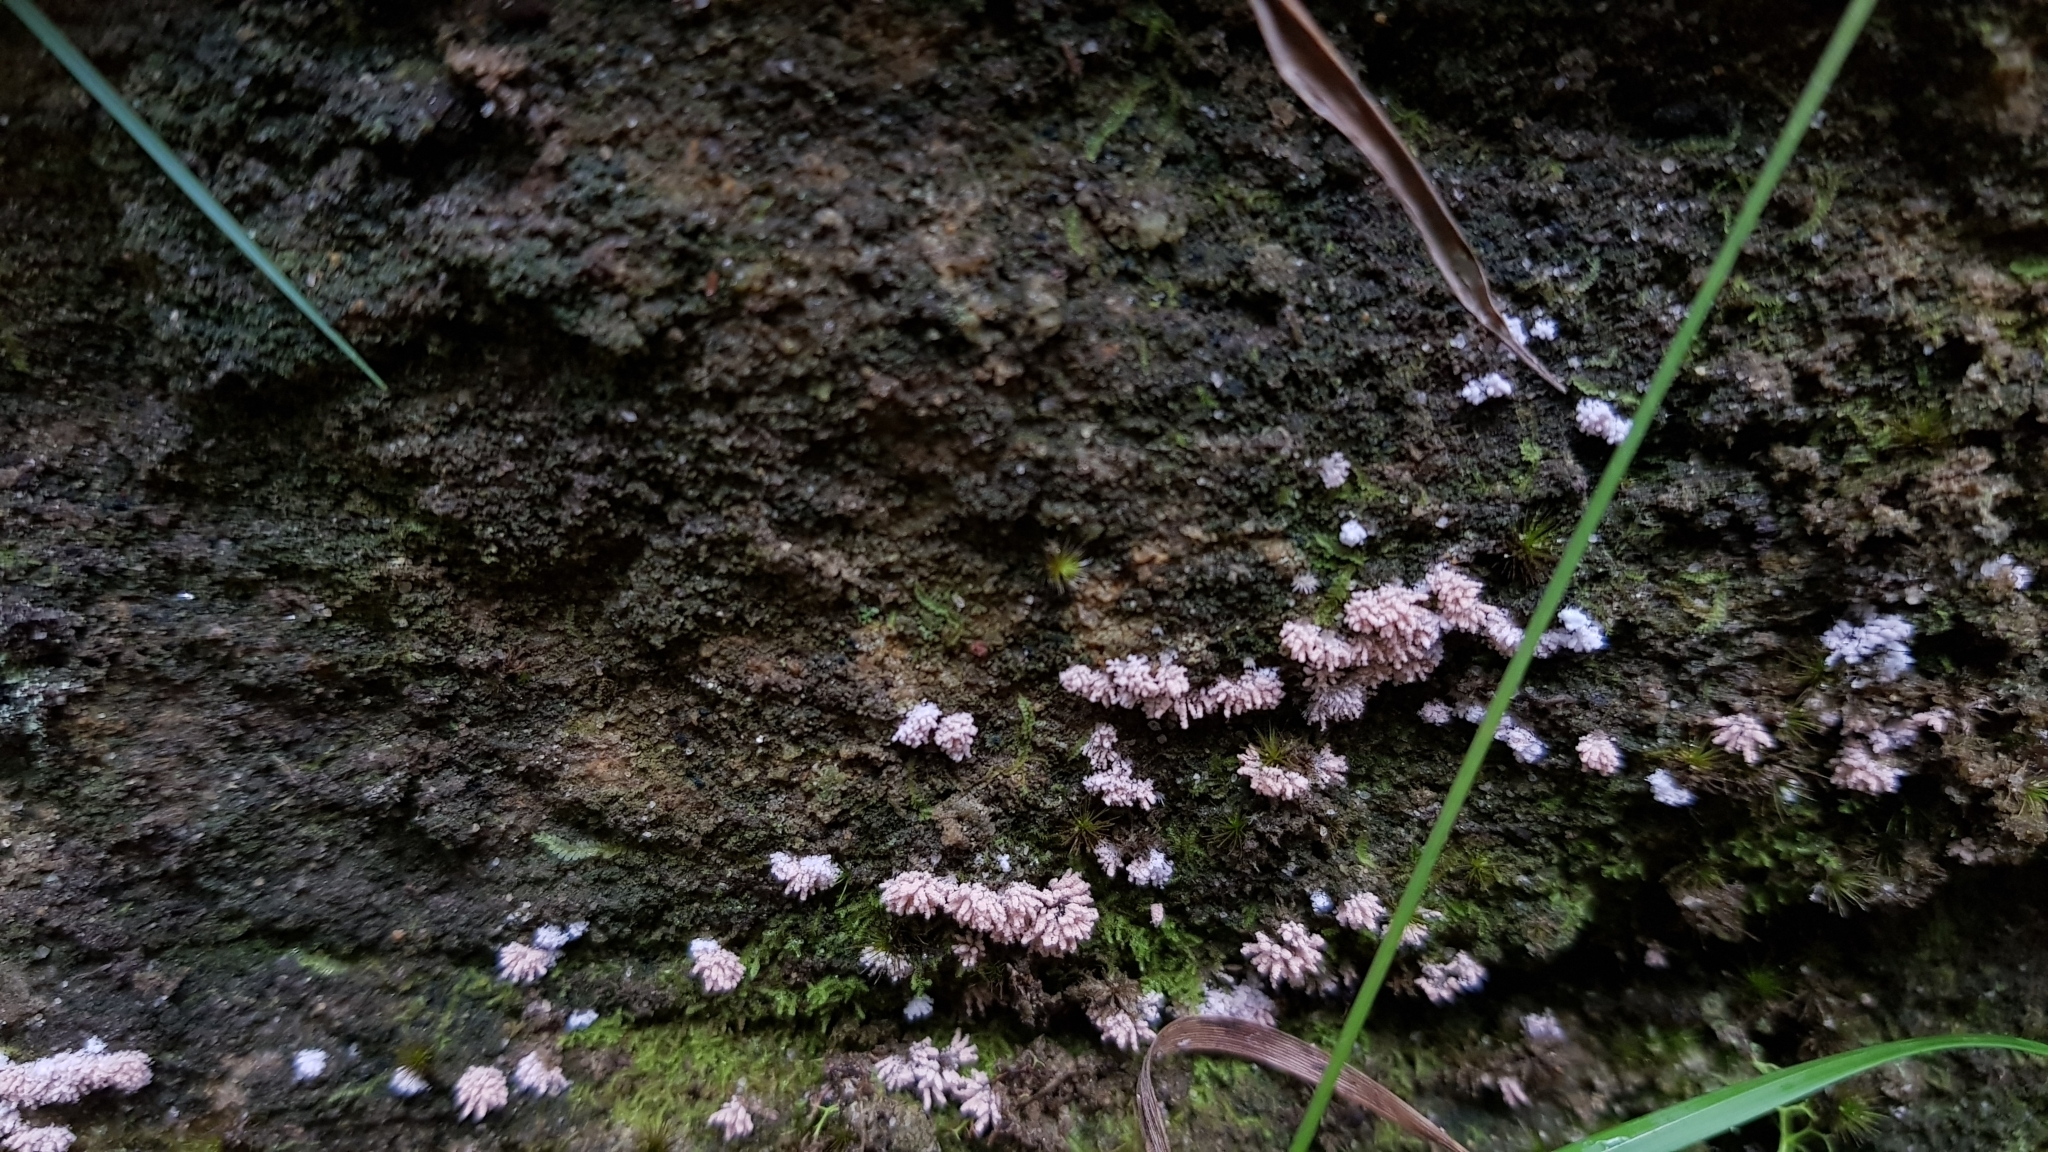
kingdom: Fungi
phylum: Ascomycota
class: Pezizomycetes
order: Pezizales
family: Pezizaceae
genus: Chromelosporiopsis
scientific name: Chromelosporiopsis carnea
